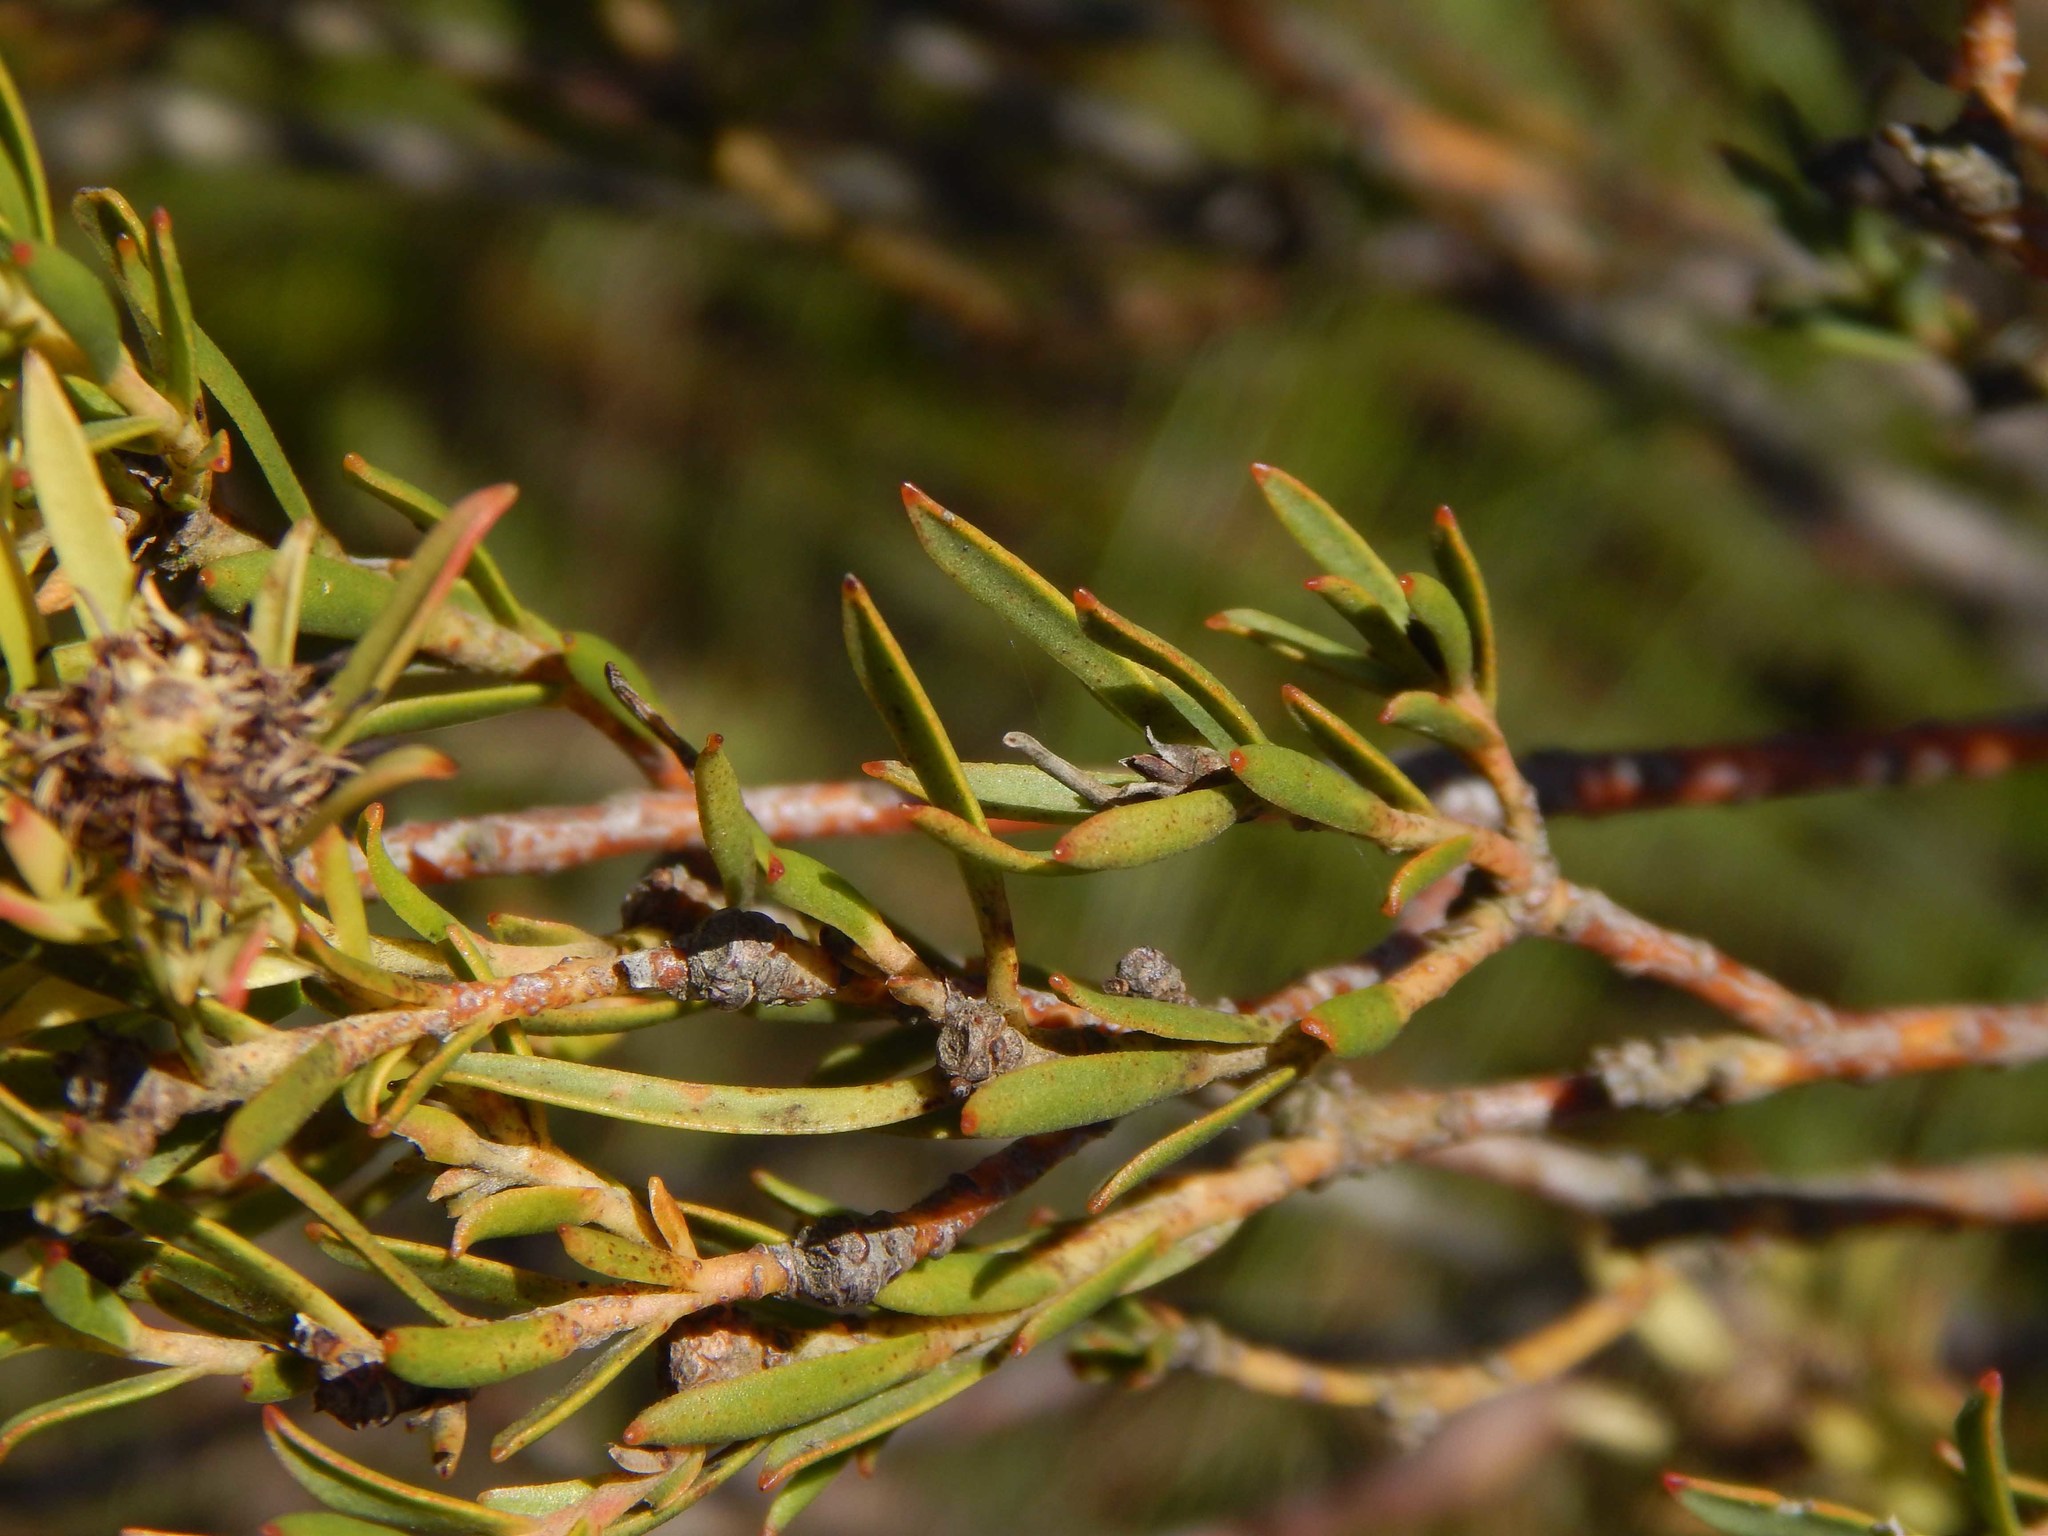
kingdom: Plantae
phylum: Tracheophyta
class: Magnoliopsida
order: Proteales
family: Proteaceae
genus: Leucadendron
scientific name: Leucadendron lanigerum
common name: Shale conebush
